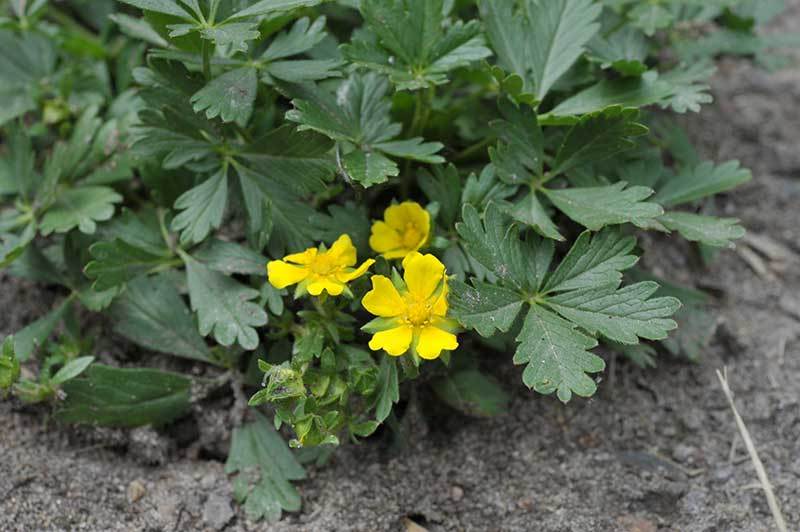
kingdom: Plantae
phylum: Tracheophyta
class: Magnoliopsida
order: Rosales
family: Rosaceae
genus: Potentilla
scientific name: Potentilla verna
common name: Spring cinquefoil
